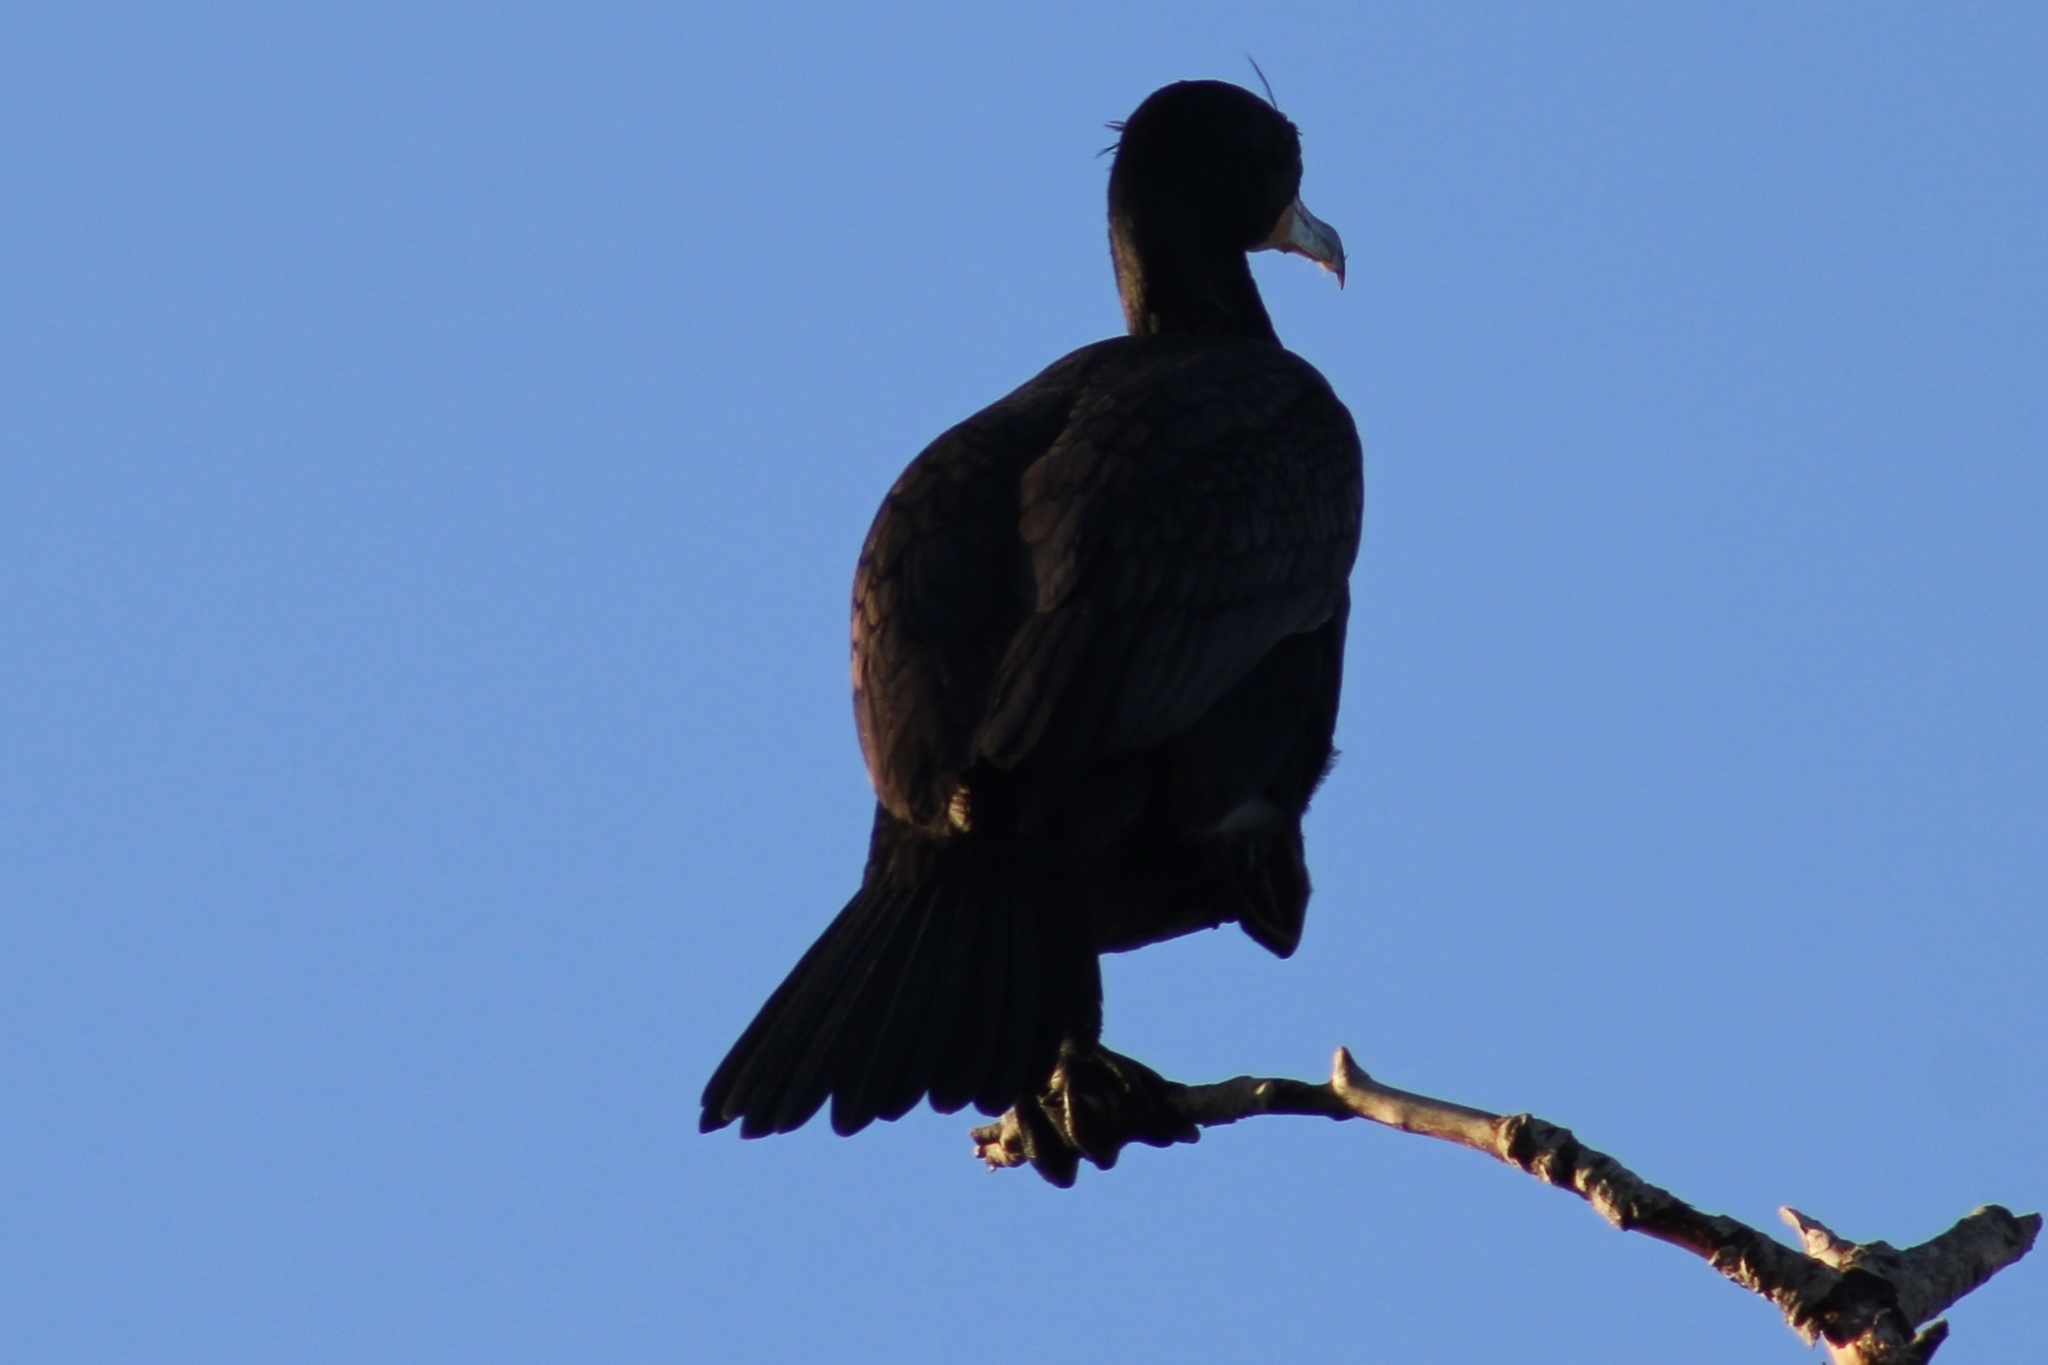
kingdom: Animalia
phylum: Chordata
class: Aves
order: Suliformes
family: Phalacrocoracidae
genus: Phalacrocorax
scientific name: Phalacrocorax auritus
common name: Double-crested cormorant
